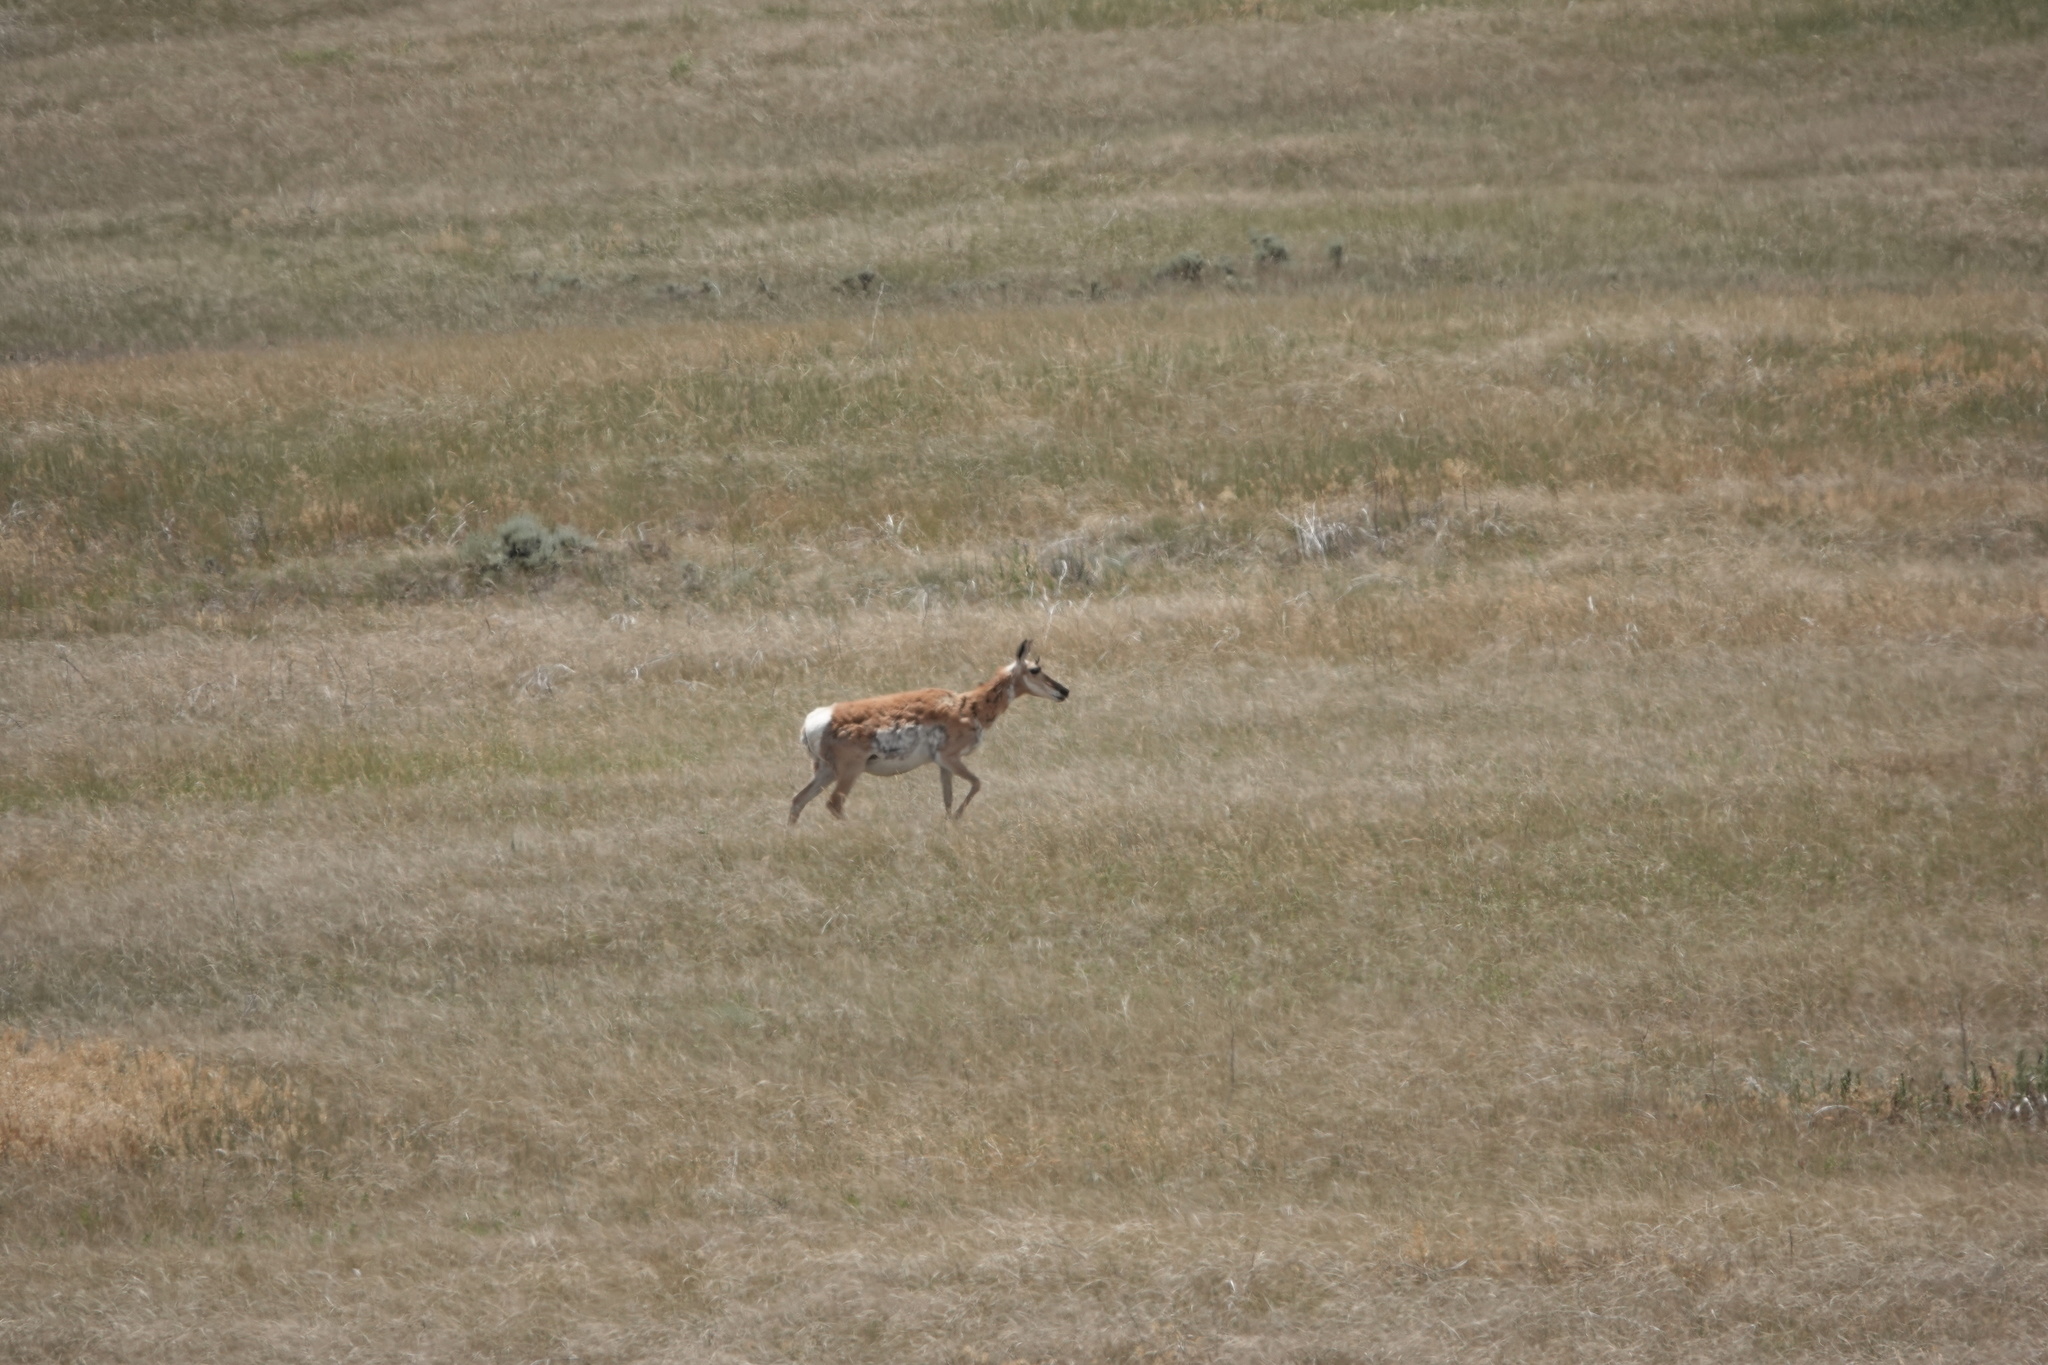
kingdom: Animalia
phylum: Chordata
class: Mammalia
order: Artiodactyla
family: Antilocapridae
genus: Antilocapra
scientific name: Antilocapra americana
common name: Pronghorn
